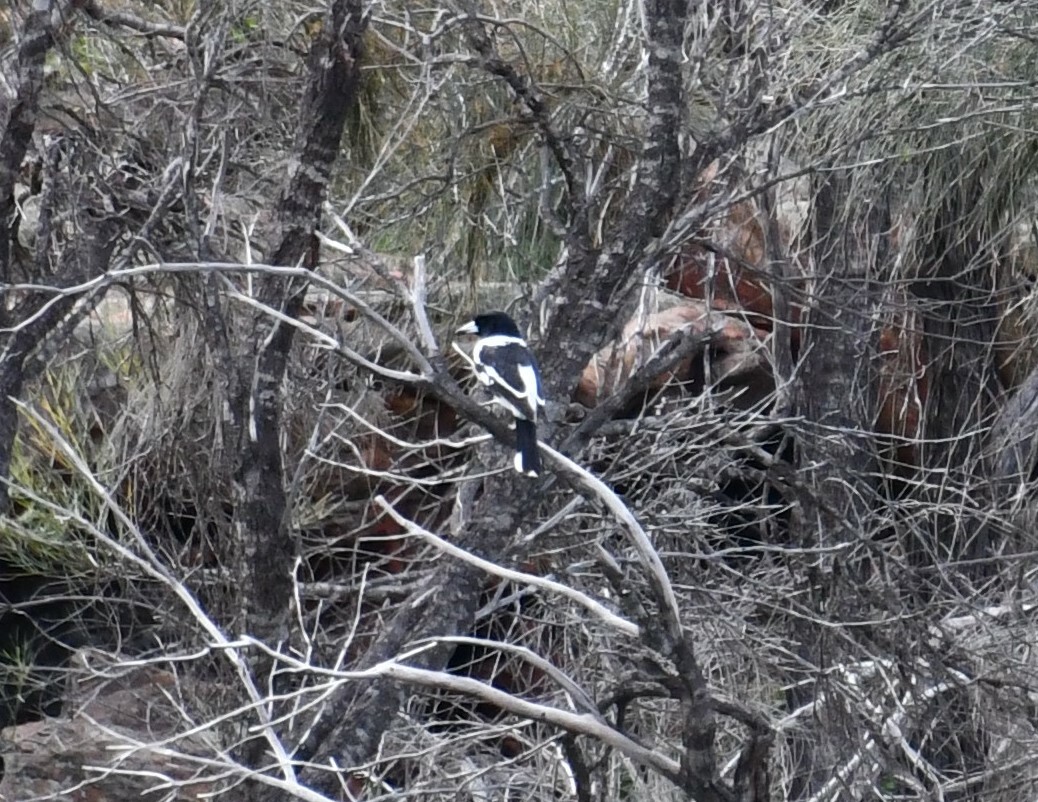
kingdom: Animalia
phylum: Chordata
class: Aves
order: Passeriformes
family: Cracticidae
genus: Cracticus
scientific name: Cracticus nigrogularis
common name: Pied butcherbird
